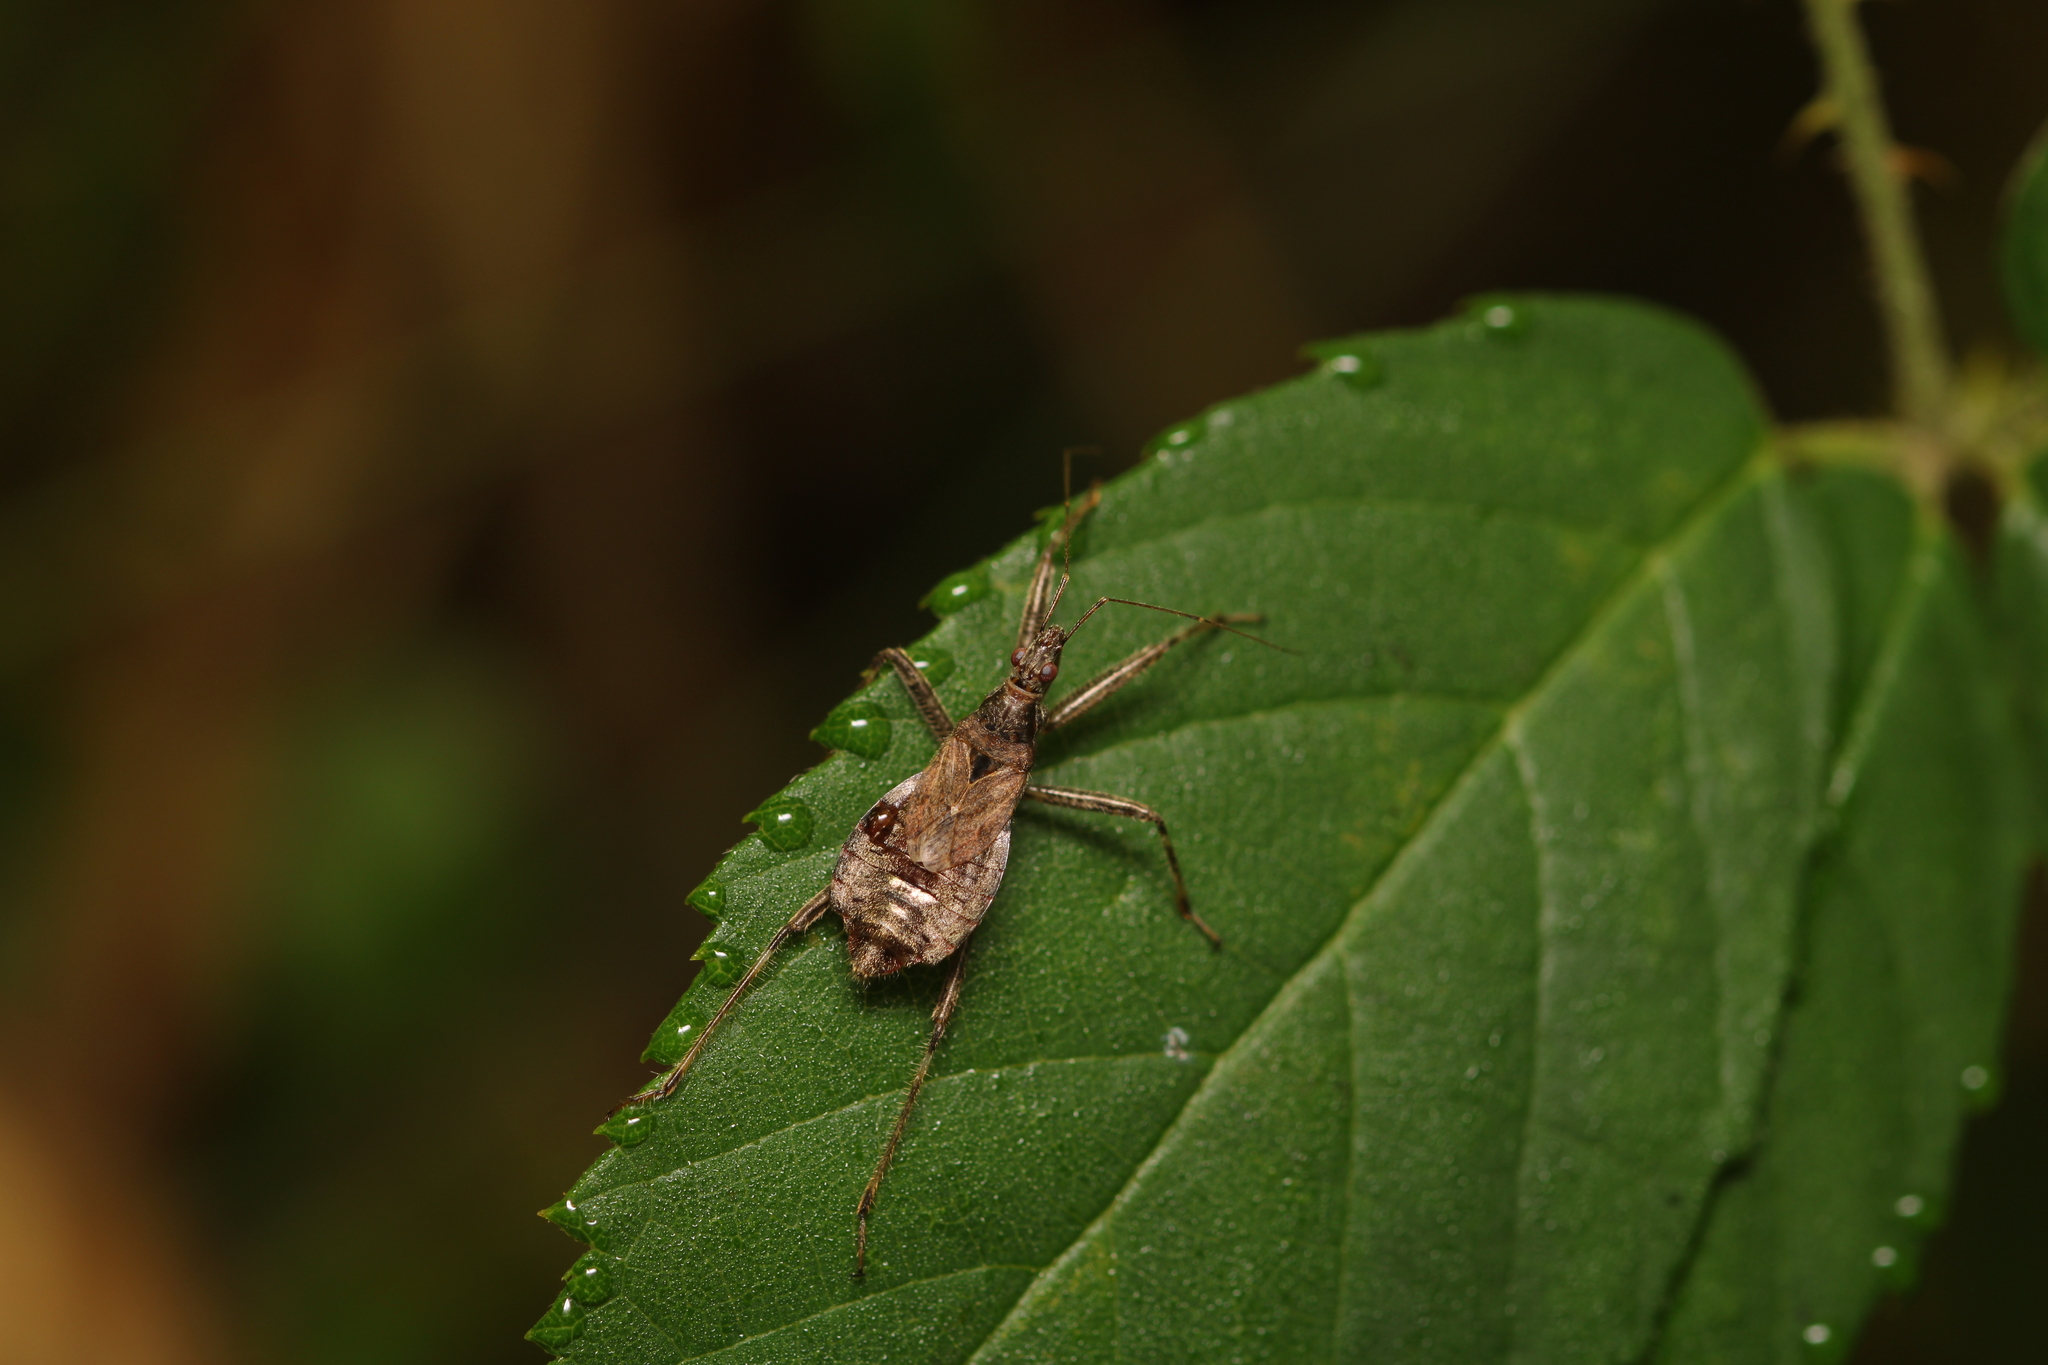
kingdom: Animalia
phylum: Arthropoda
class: Insecta
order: Hemiptera
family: Nabidae
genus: Himacerus
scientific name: Himacerus apterus
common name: Tree damsel bug
